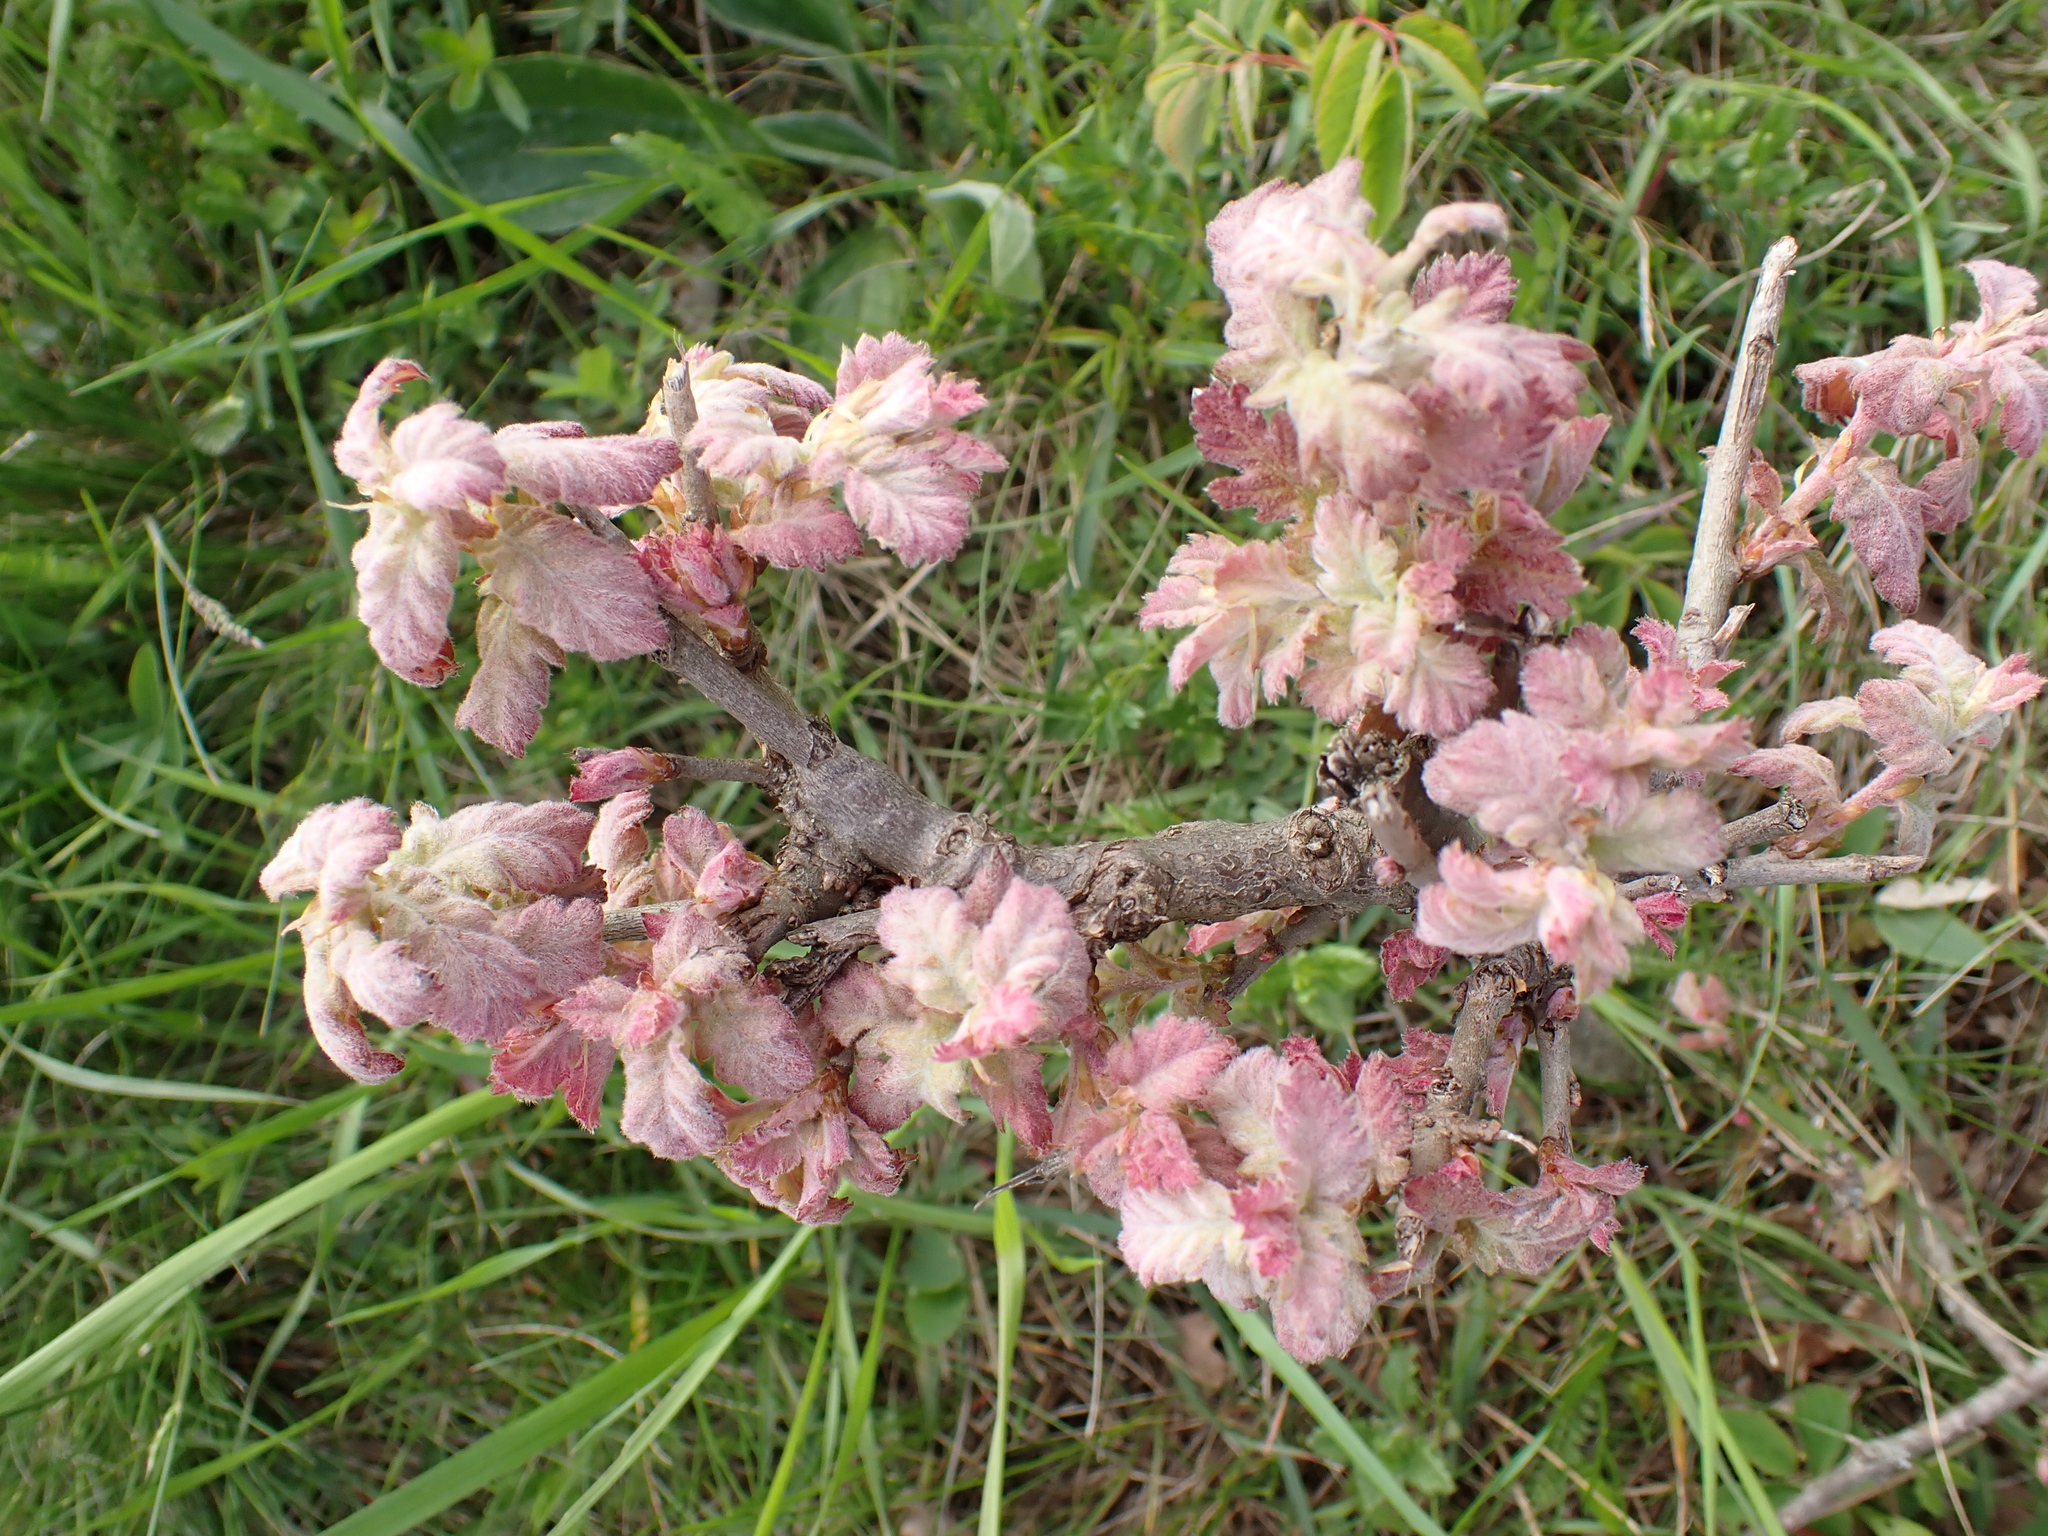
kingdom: Plantae
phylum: Tracheophyta
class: Magnoliopsida
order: Fagales
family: Fagaceae
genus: Quercus
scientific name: Quercus pubescens
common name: Downy oak
